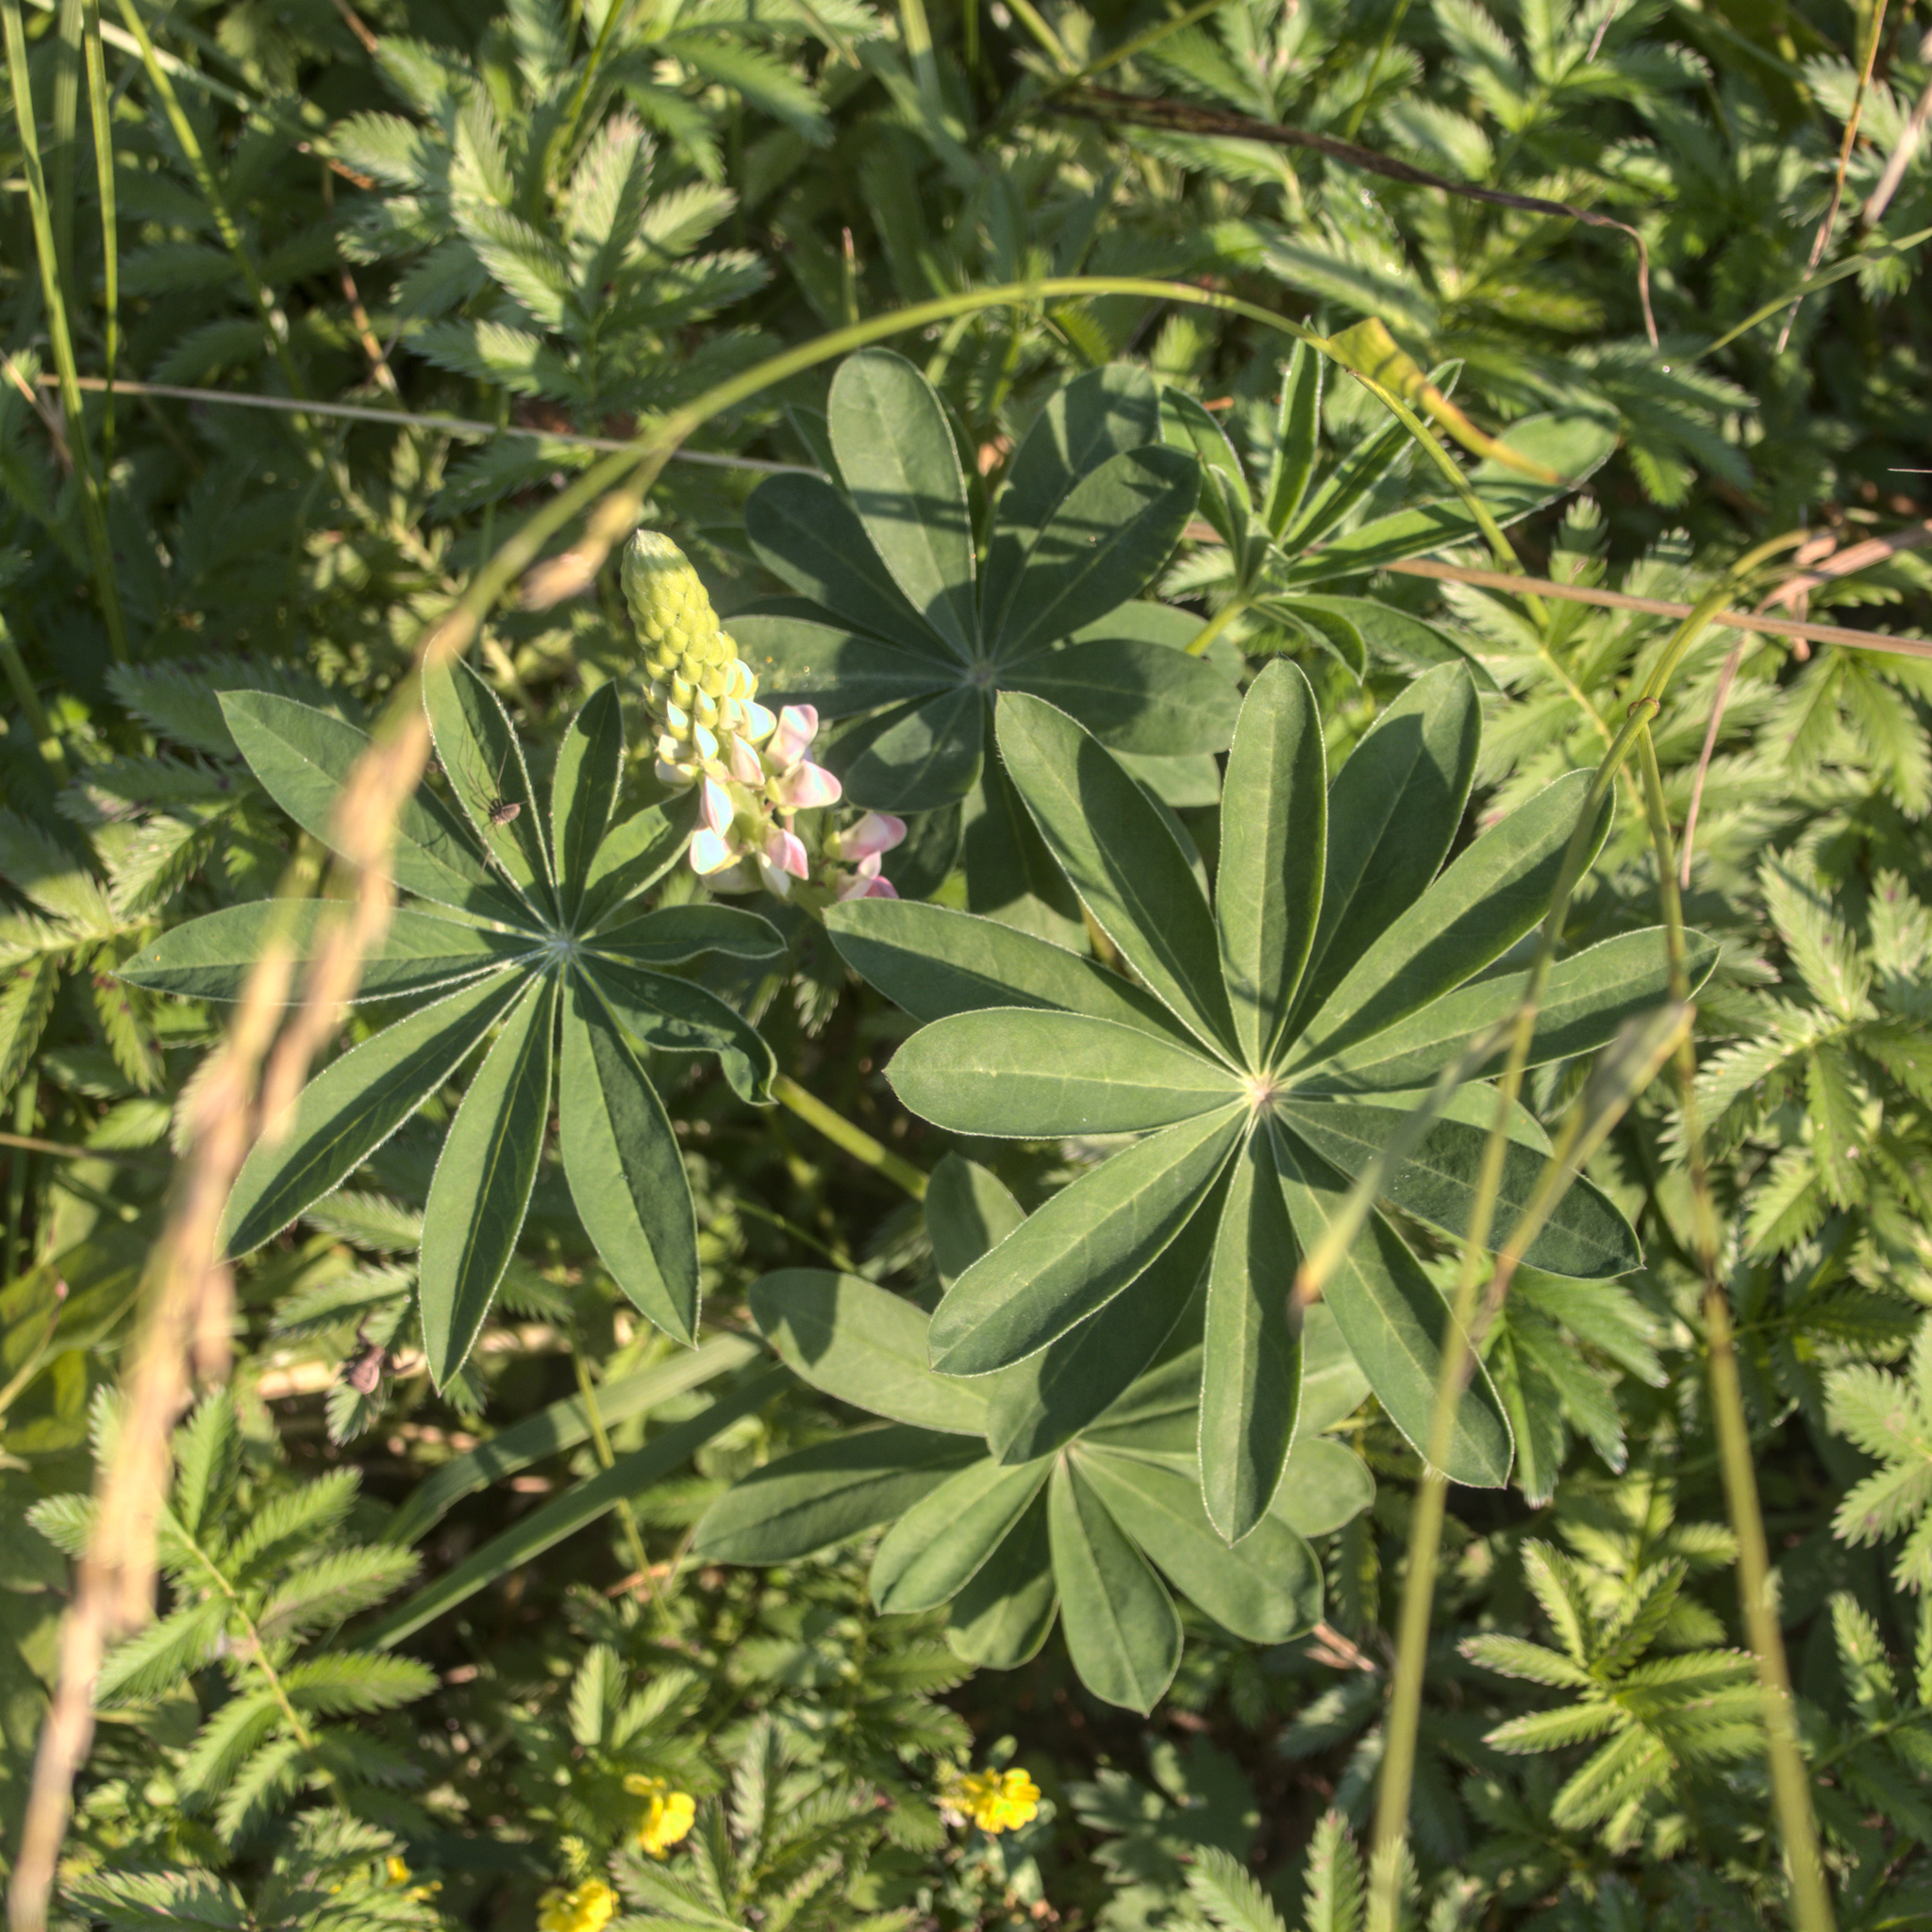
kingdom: Plantae
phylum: Tracheophyta
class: Magnoliopsida
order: Fabales
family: Fabaceae
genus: Lupinus
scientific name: Lupinus polyphyllus
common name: Garden lupin
